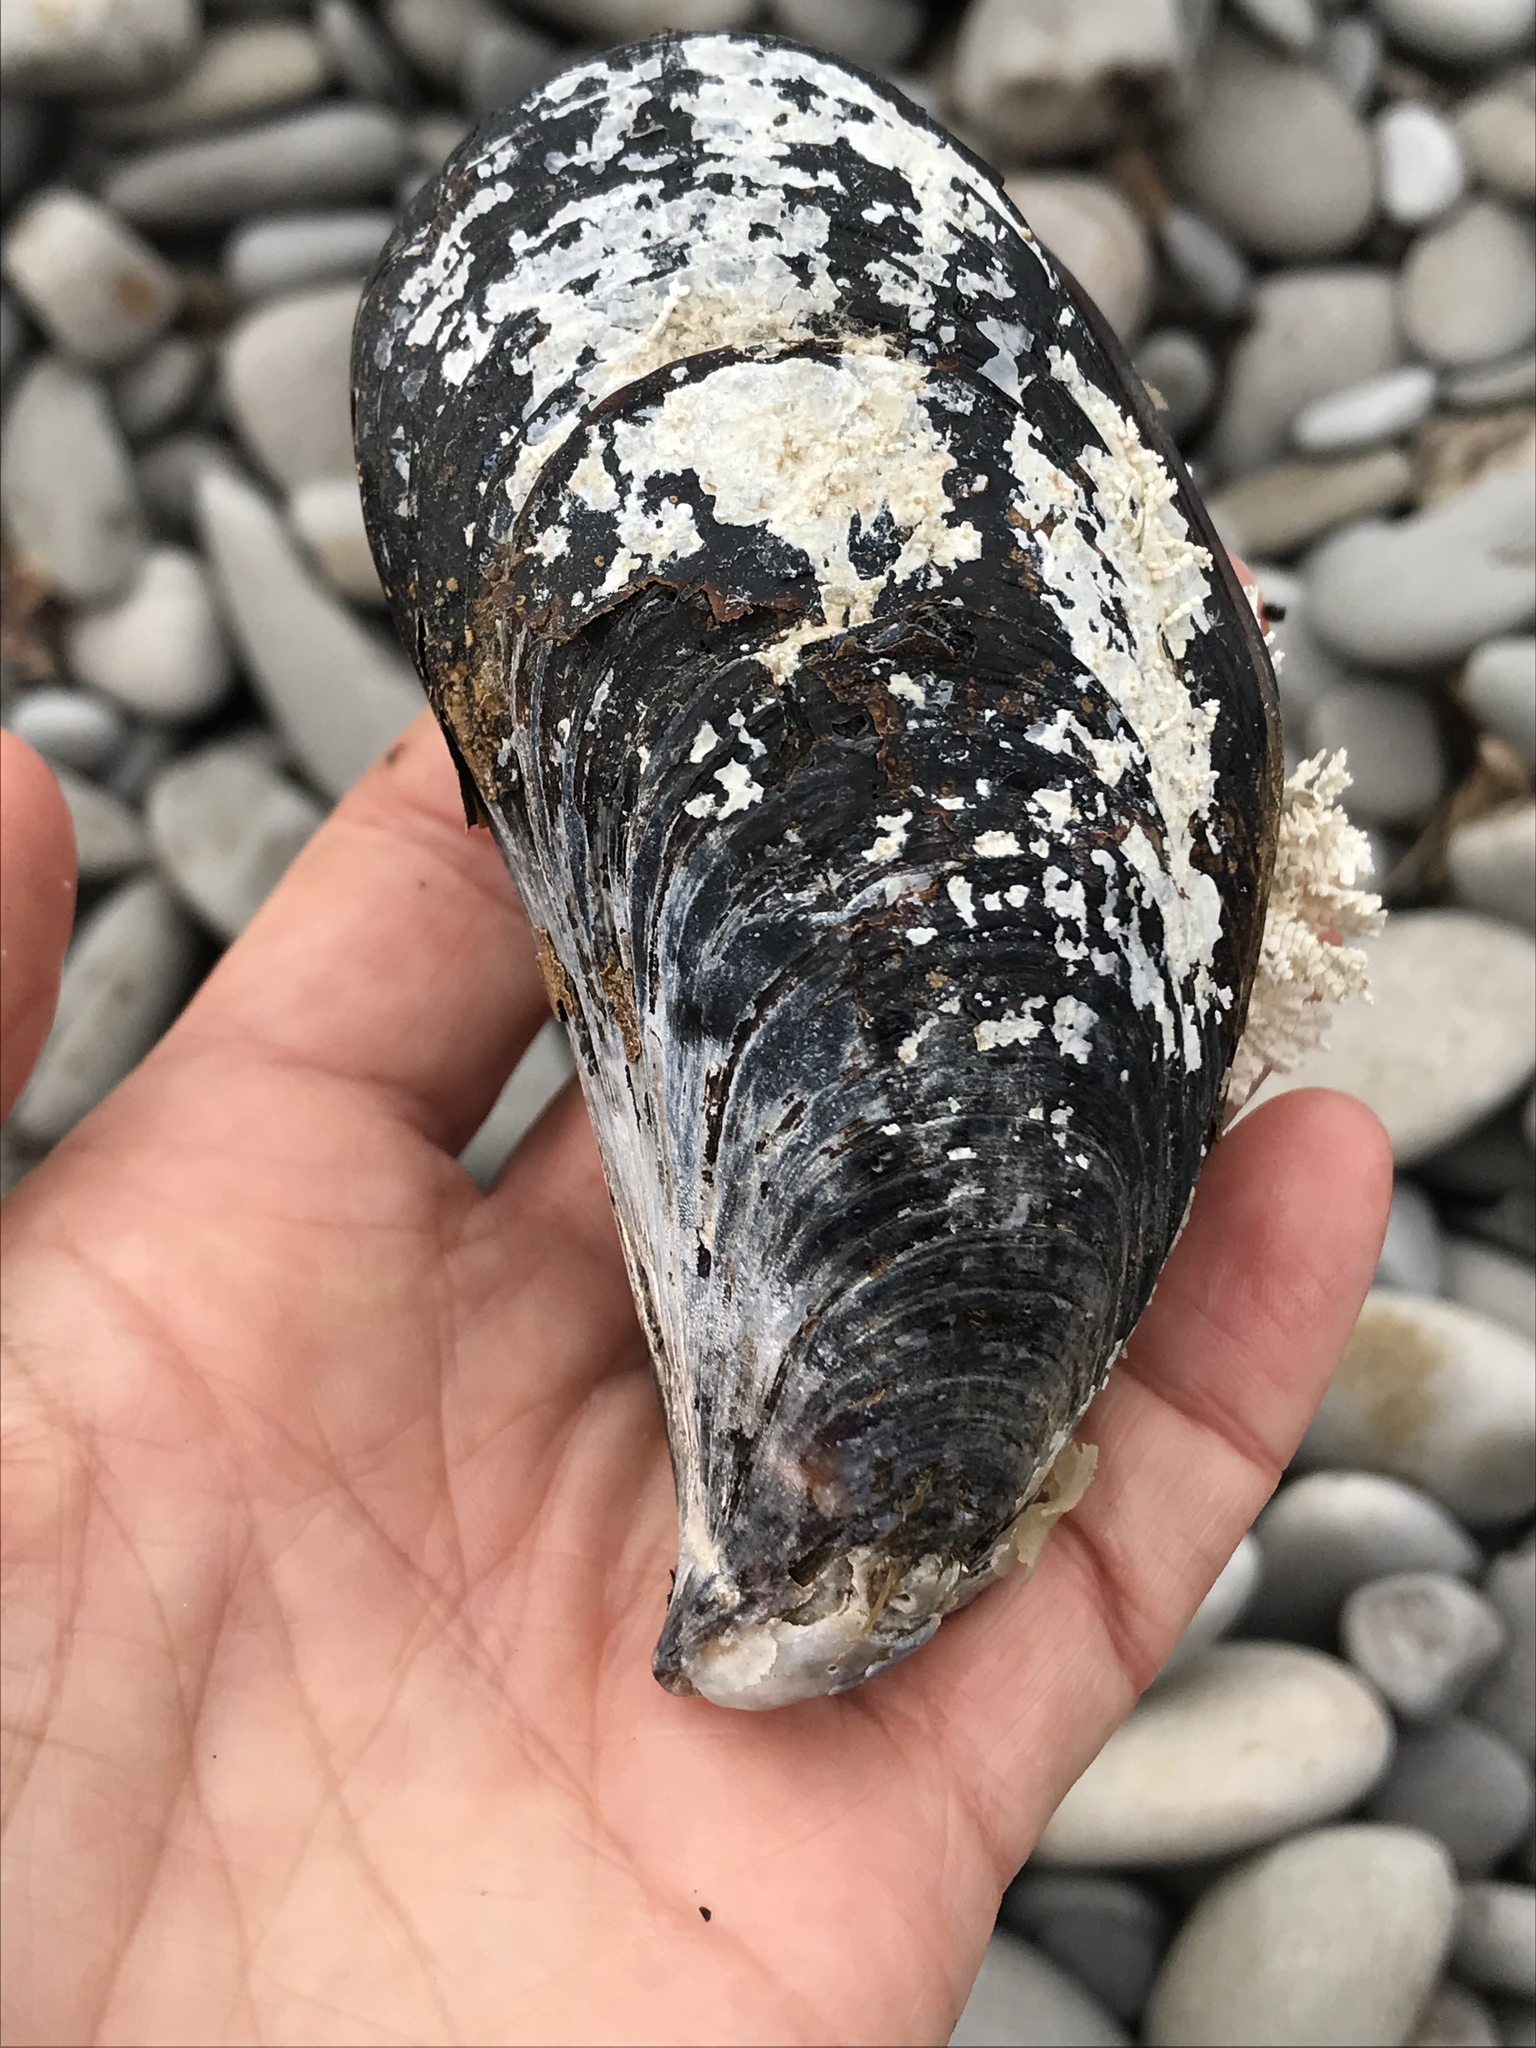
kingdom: Animalia
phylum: Mollusca
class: Bivalvia
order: Mytilida
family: Mytilidae
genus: Mytilus
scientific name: Mytilus californianus
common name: California mussel
